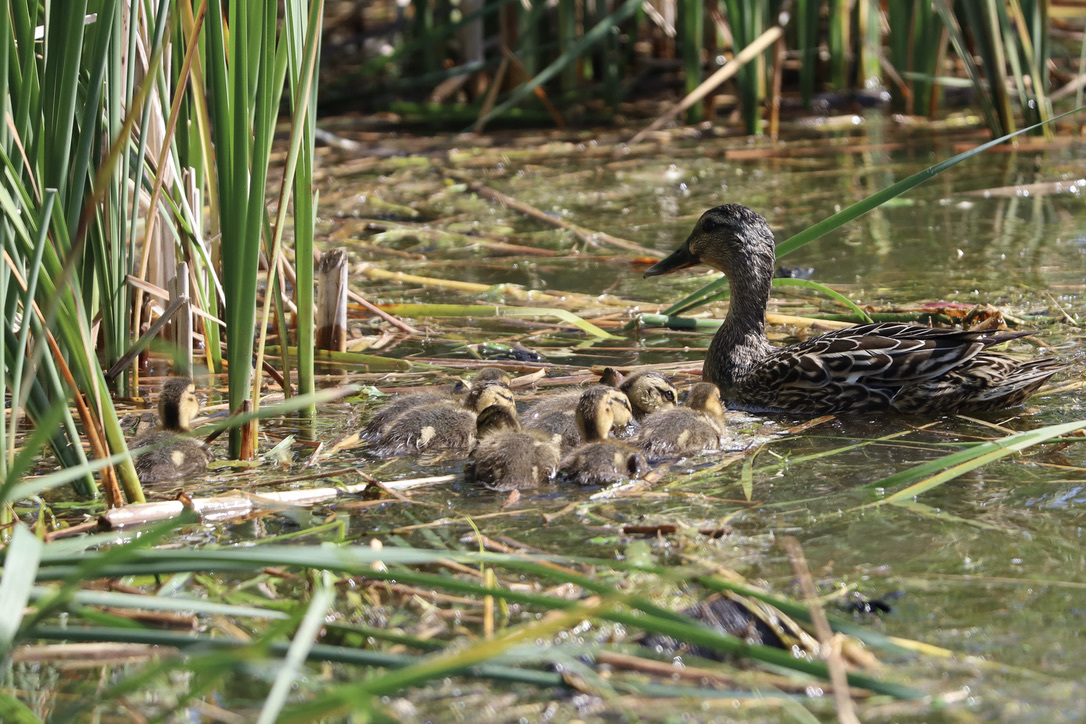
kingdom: Animalia
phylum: Chordata
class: Aves
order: Anseriformes
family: Anatidae
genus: Anas
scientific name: Anas platyrhynchos
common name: Mallard
